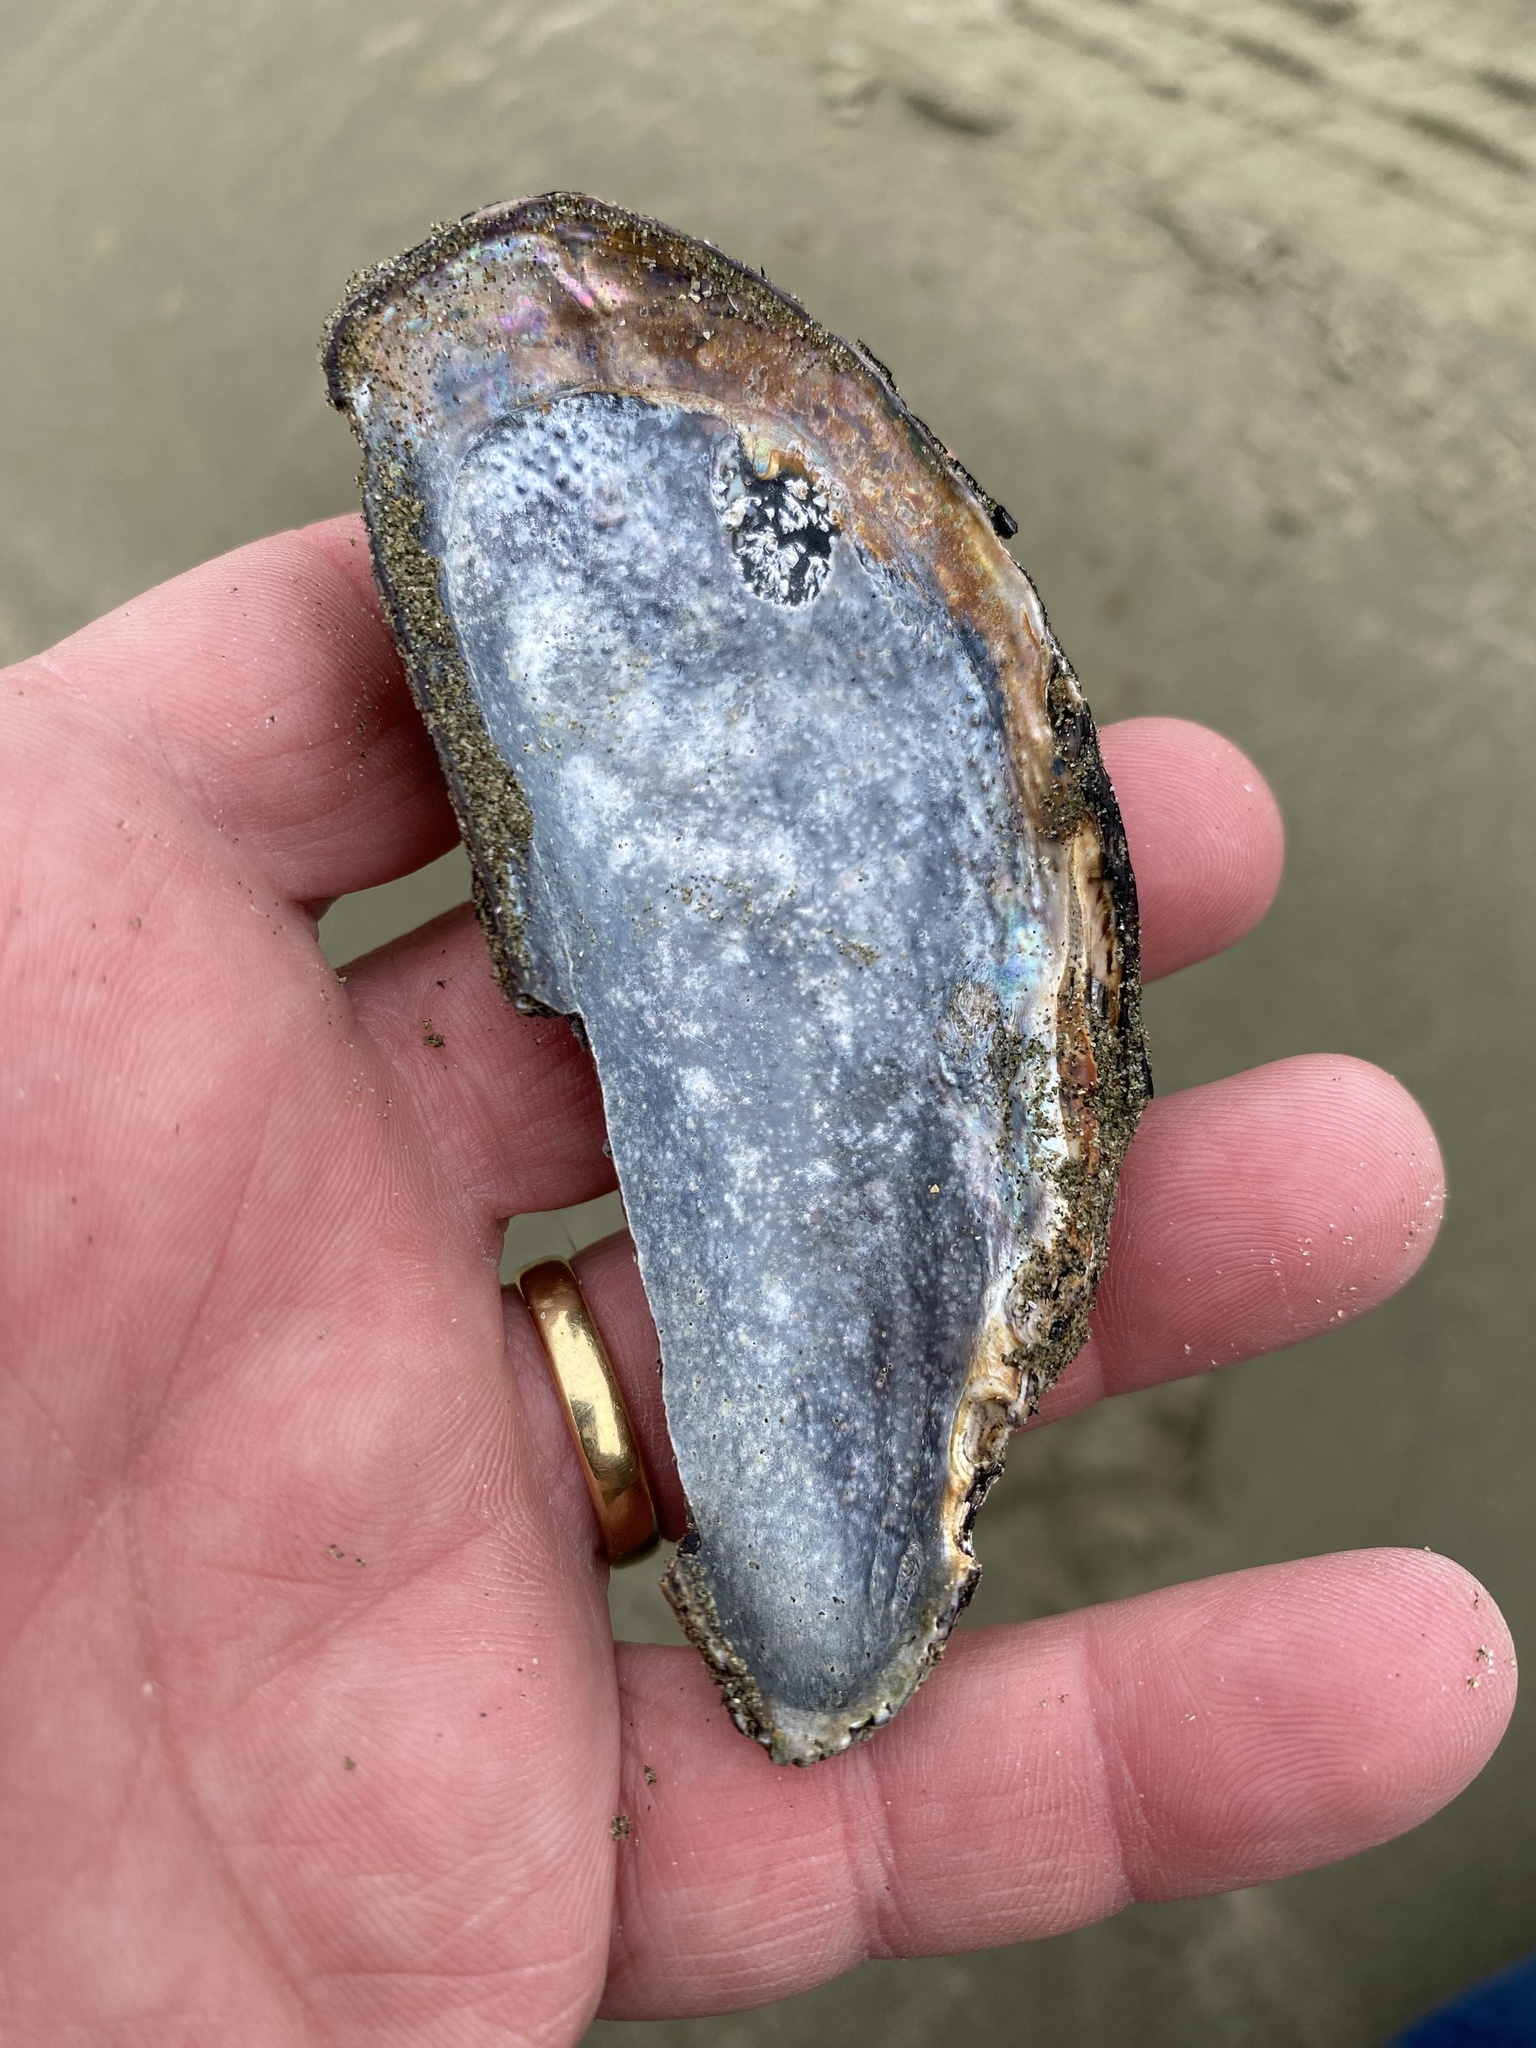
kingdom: Animalia
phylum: Mollusca
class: Bivalvia
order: Mytilida
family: Mytilidae
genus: Perna
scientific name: Perna canaliculus
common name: New zealand greenshelltm
